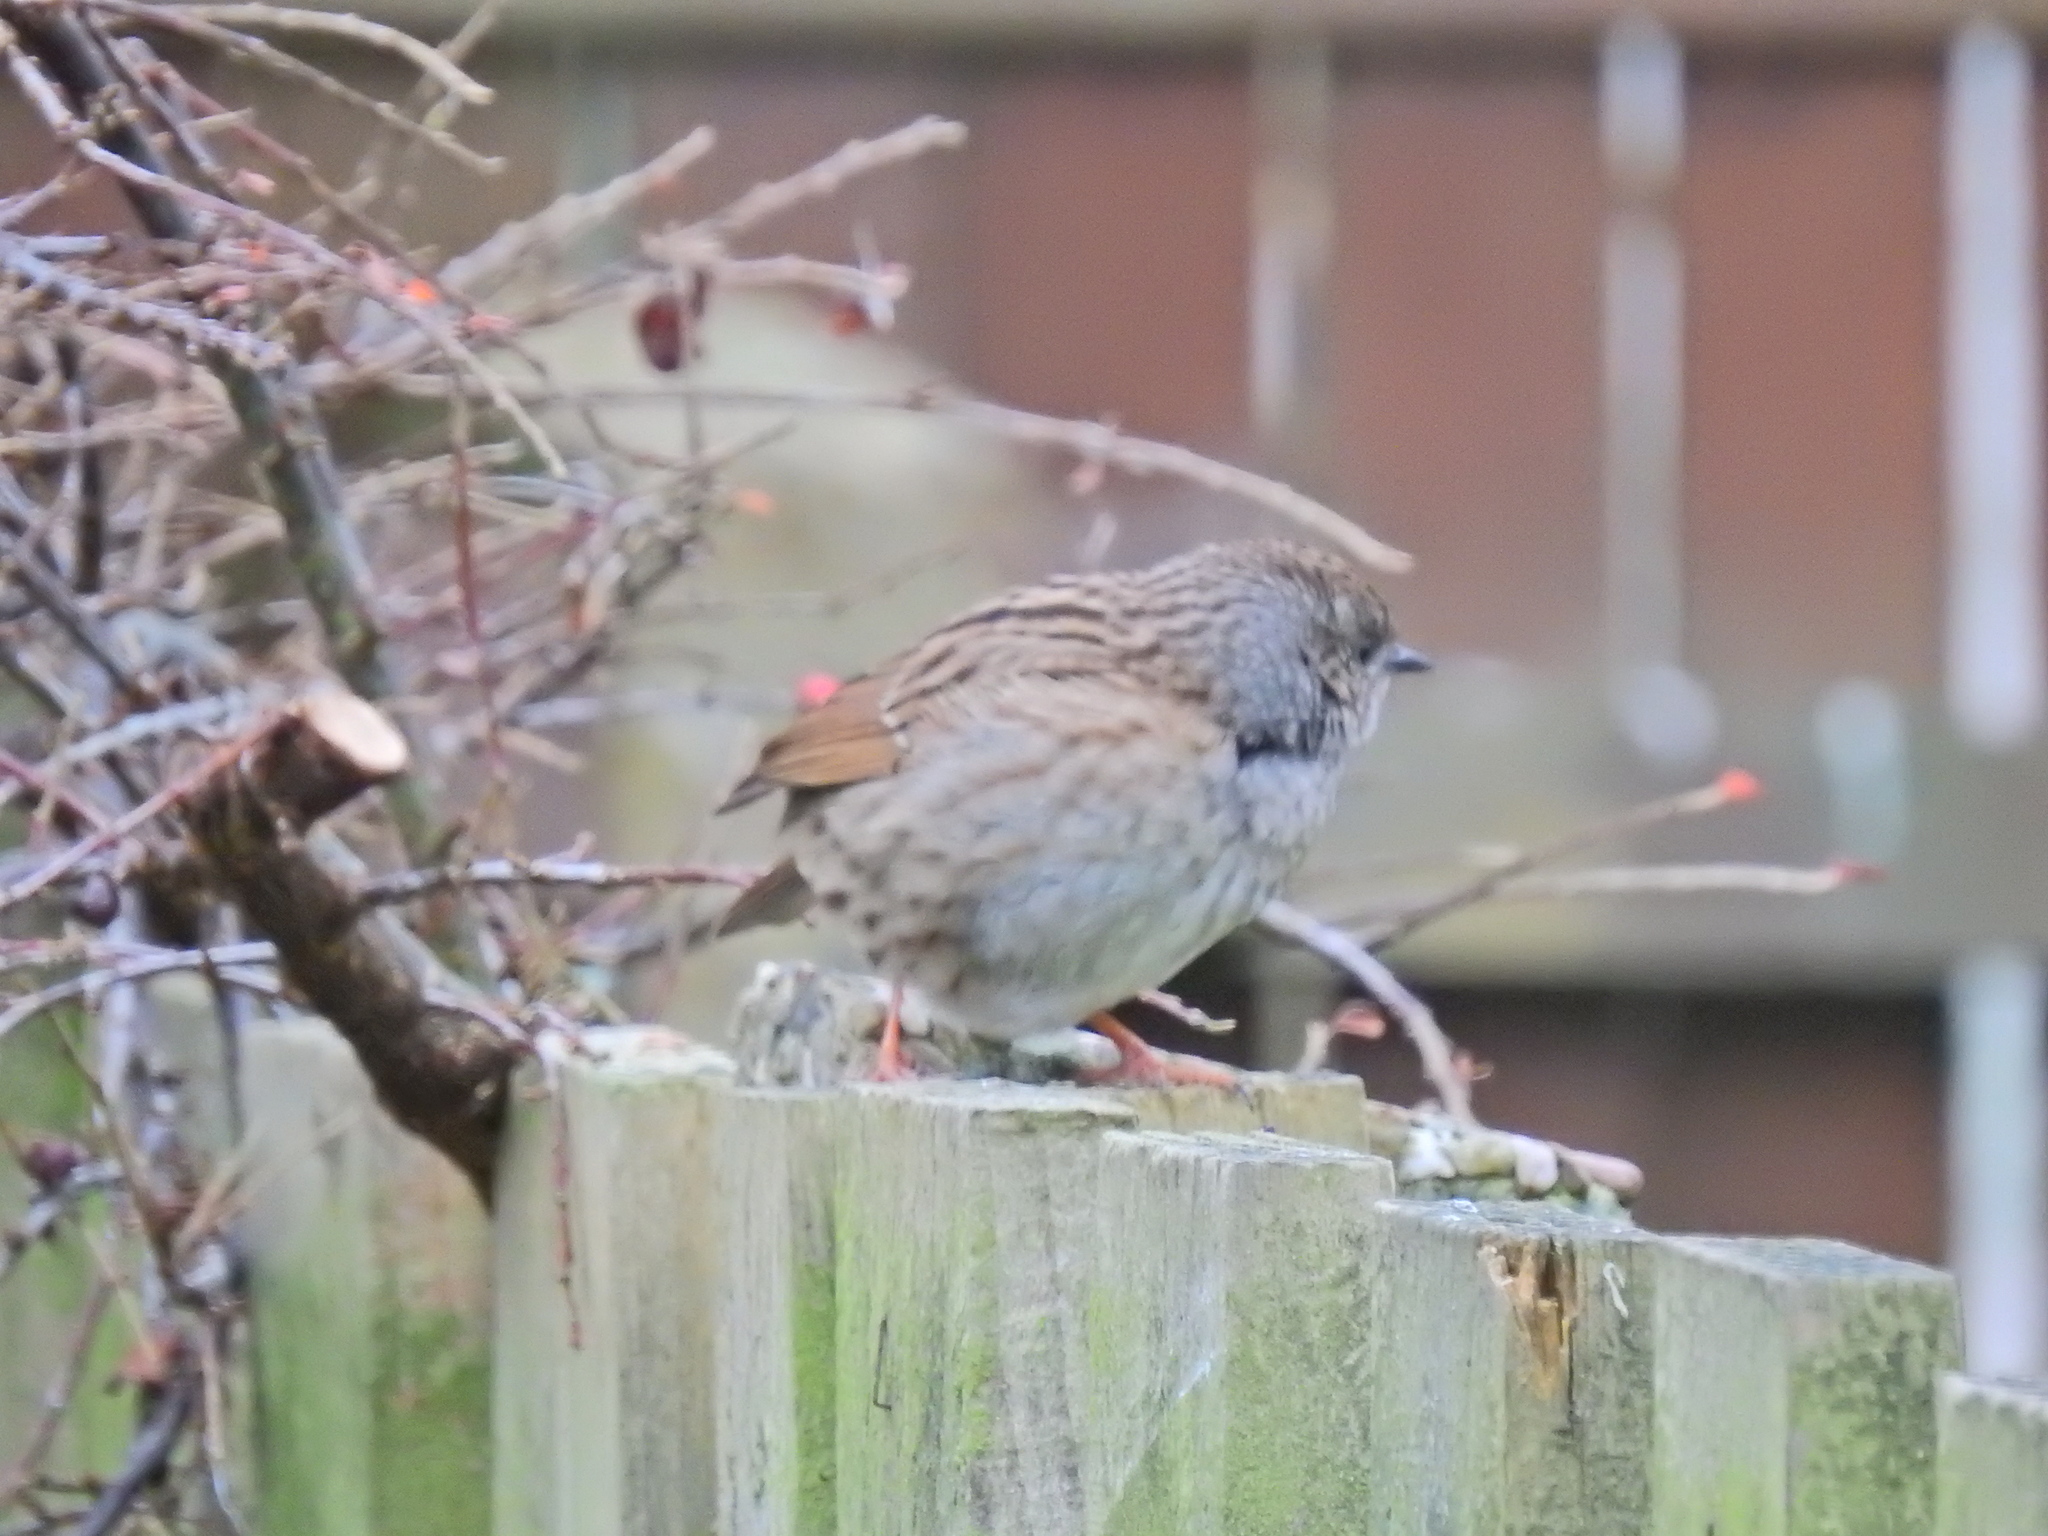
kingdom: Animalia
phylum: Chordata
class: Aves
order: Passeriformes
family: Prunellidae
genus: Prunella
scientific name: Prunella modularis
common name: Dunnock
